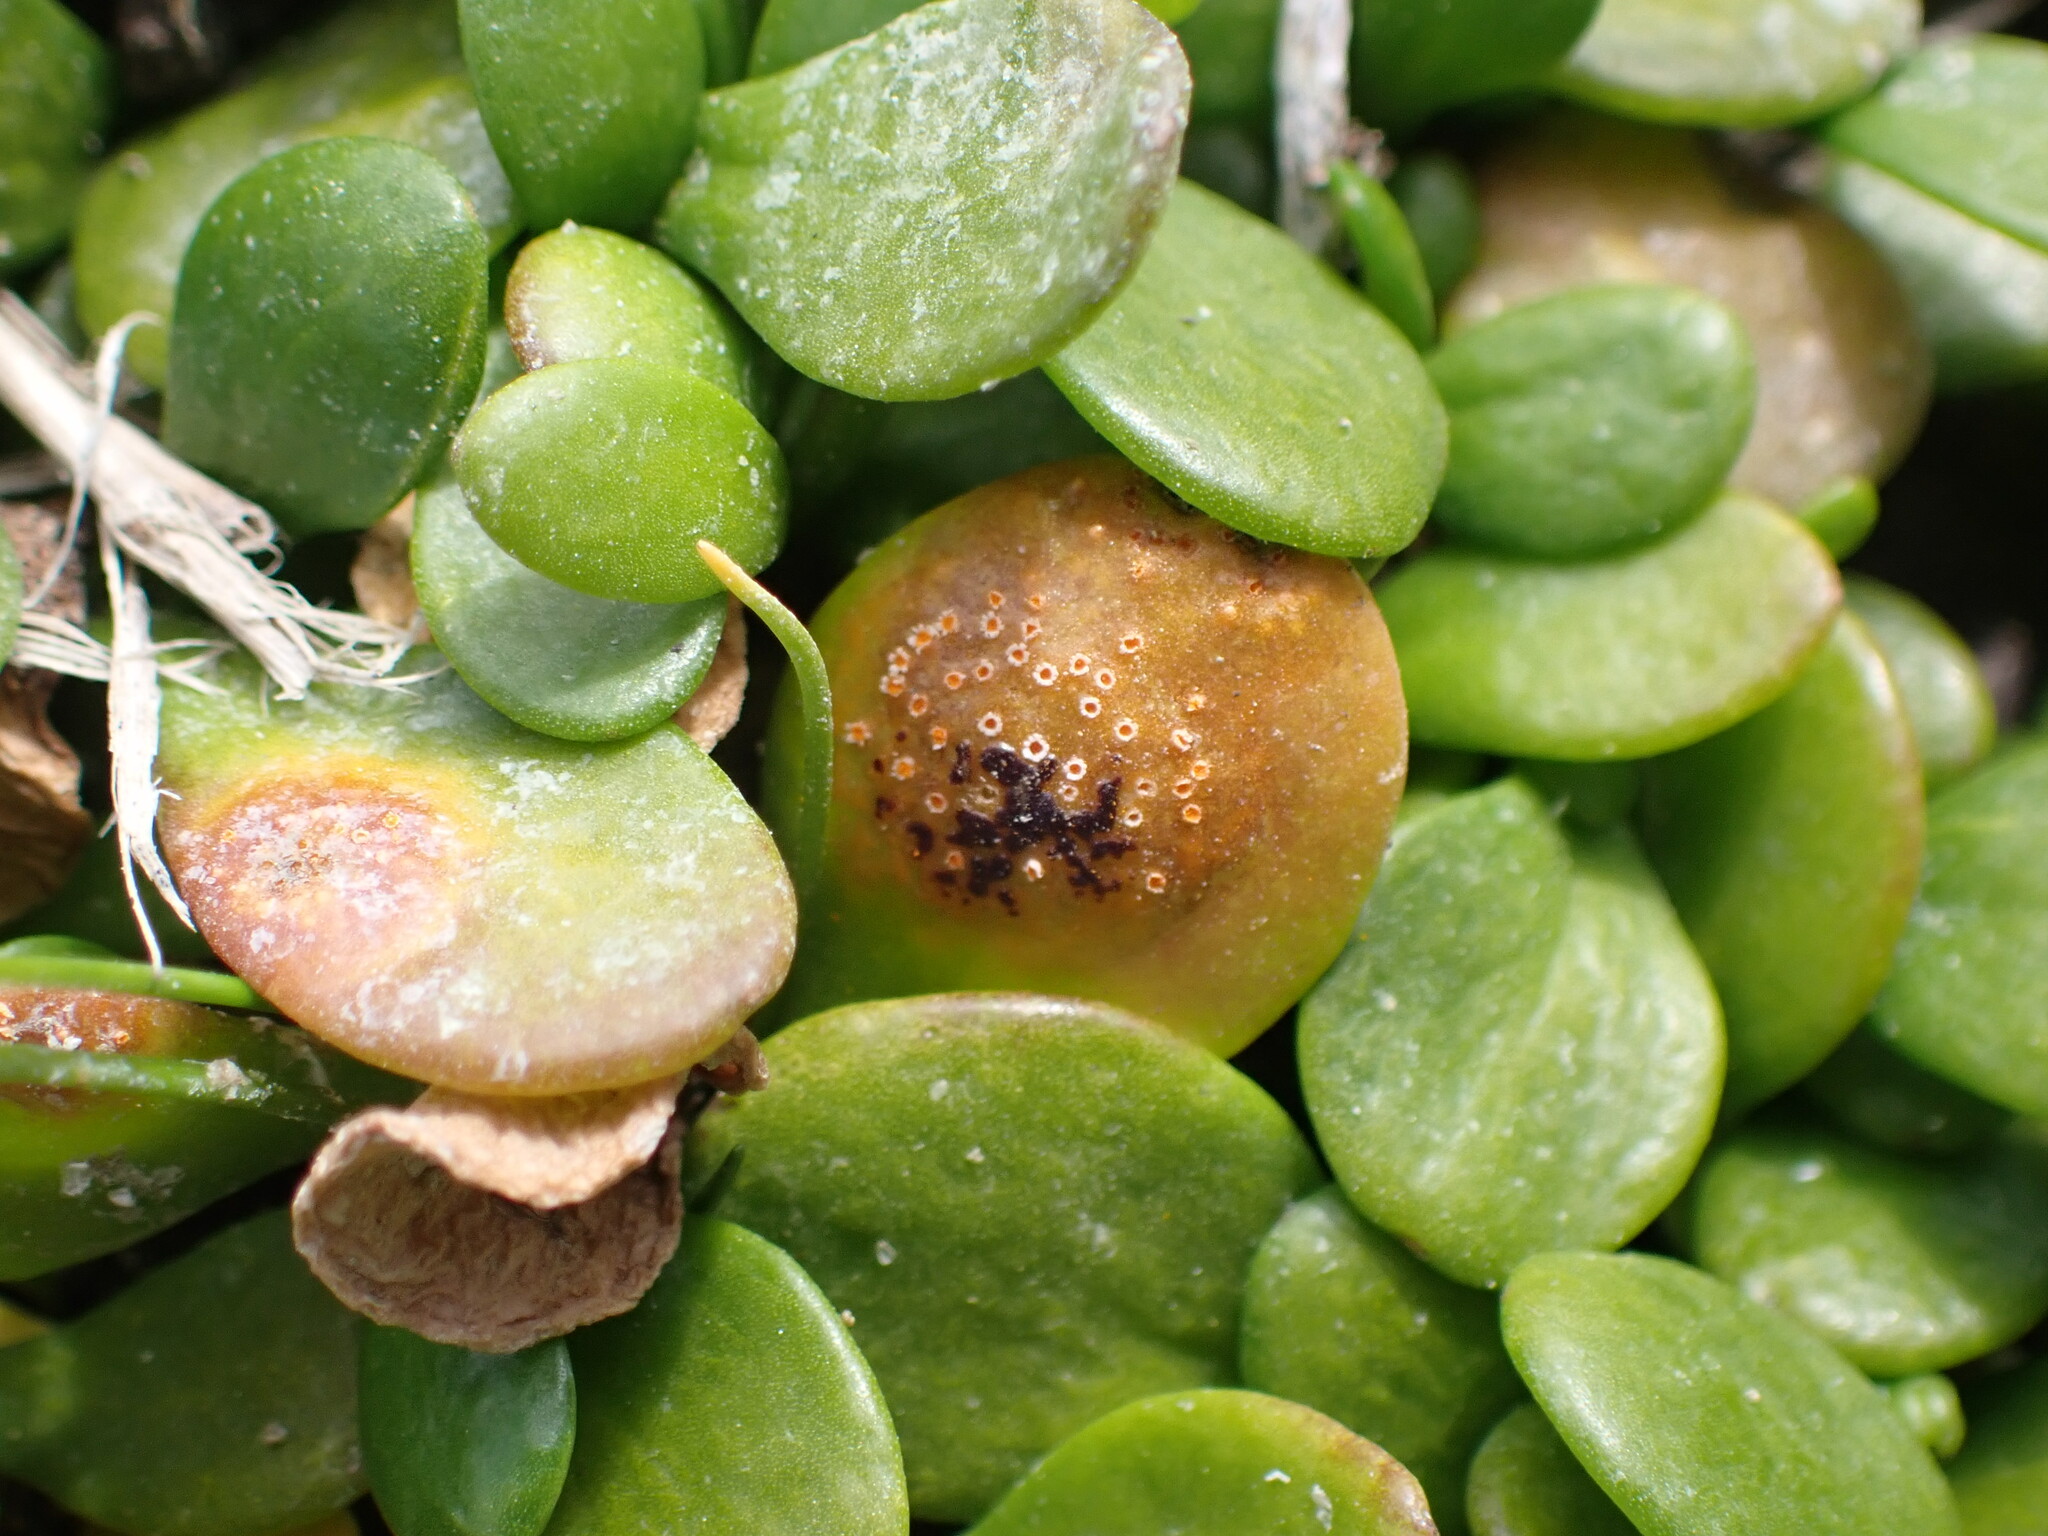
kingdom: Fungi
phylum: Basidiomycota
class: Pucciniomycetes
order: Pucciniales
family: Pucciniaceae
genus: Uromyces
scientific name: Uromyces sellierae
